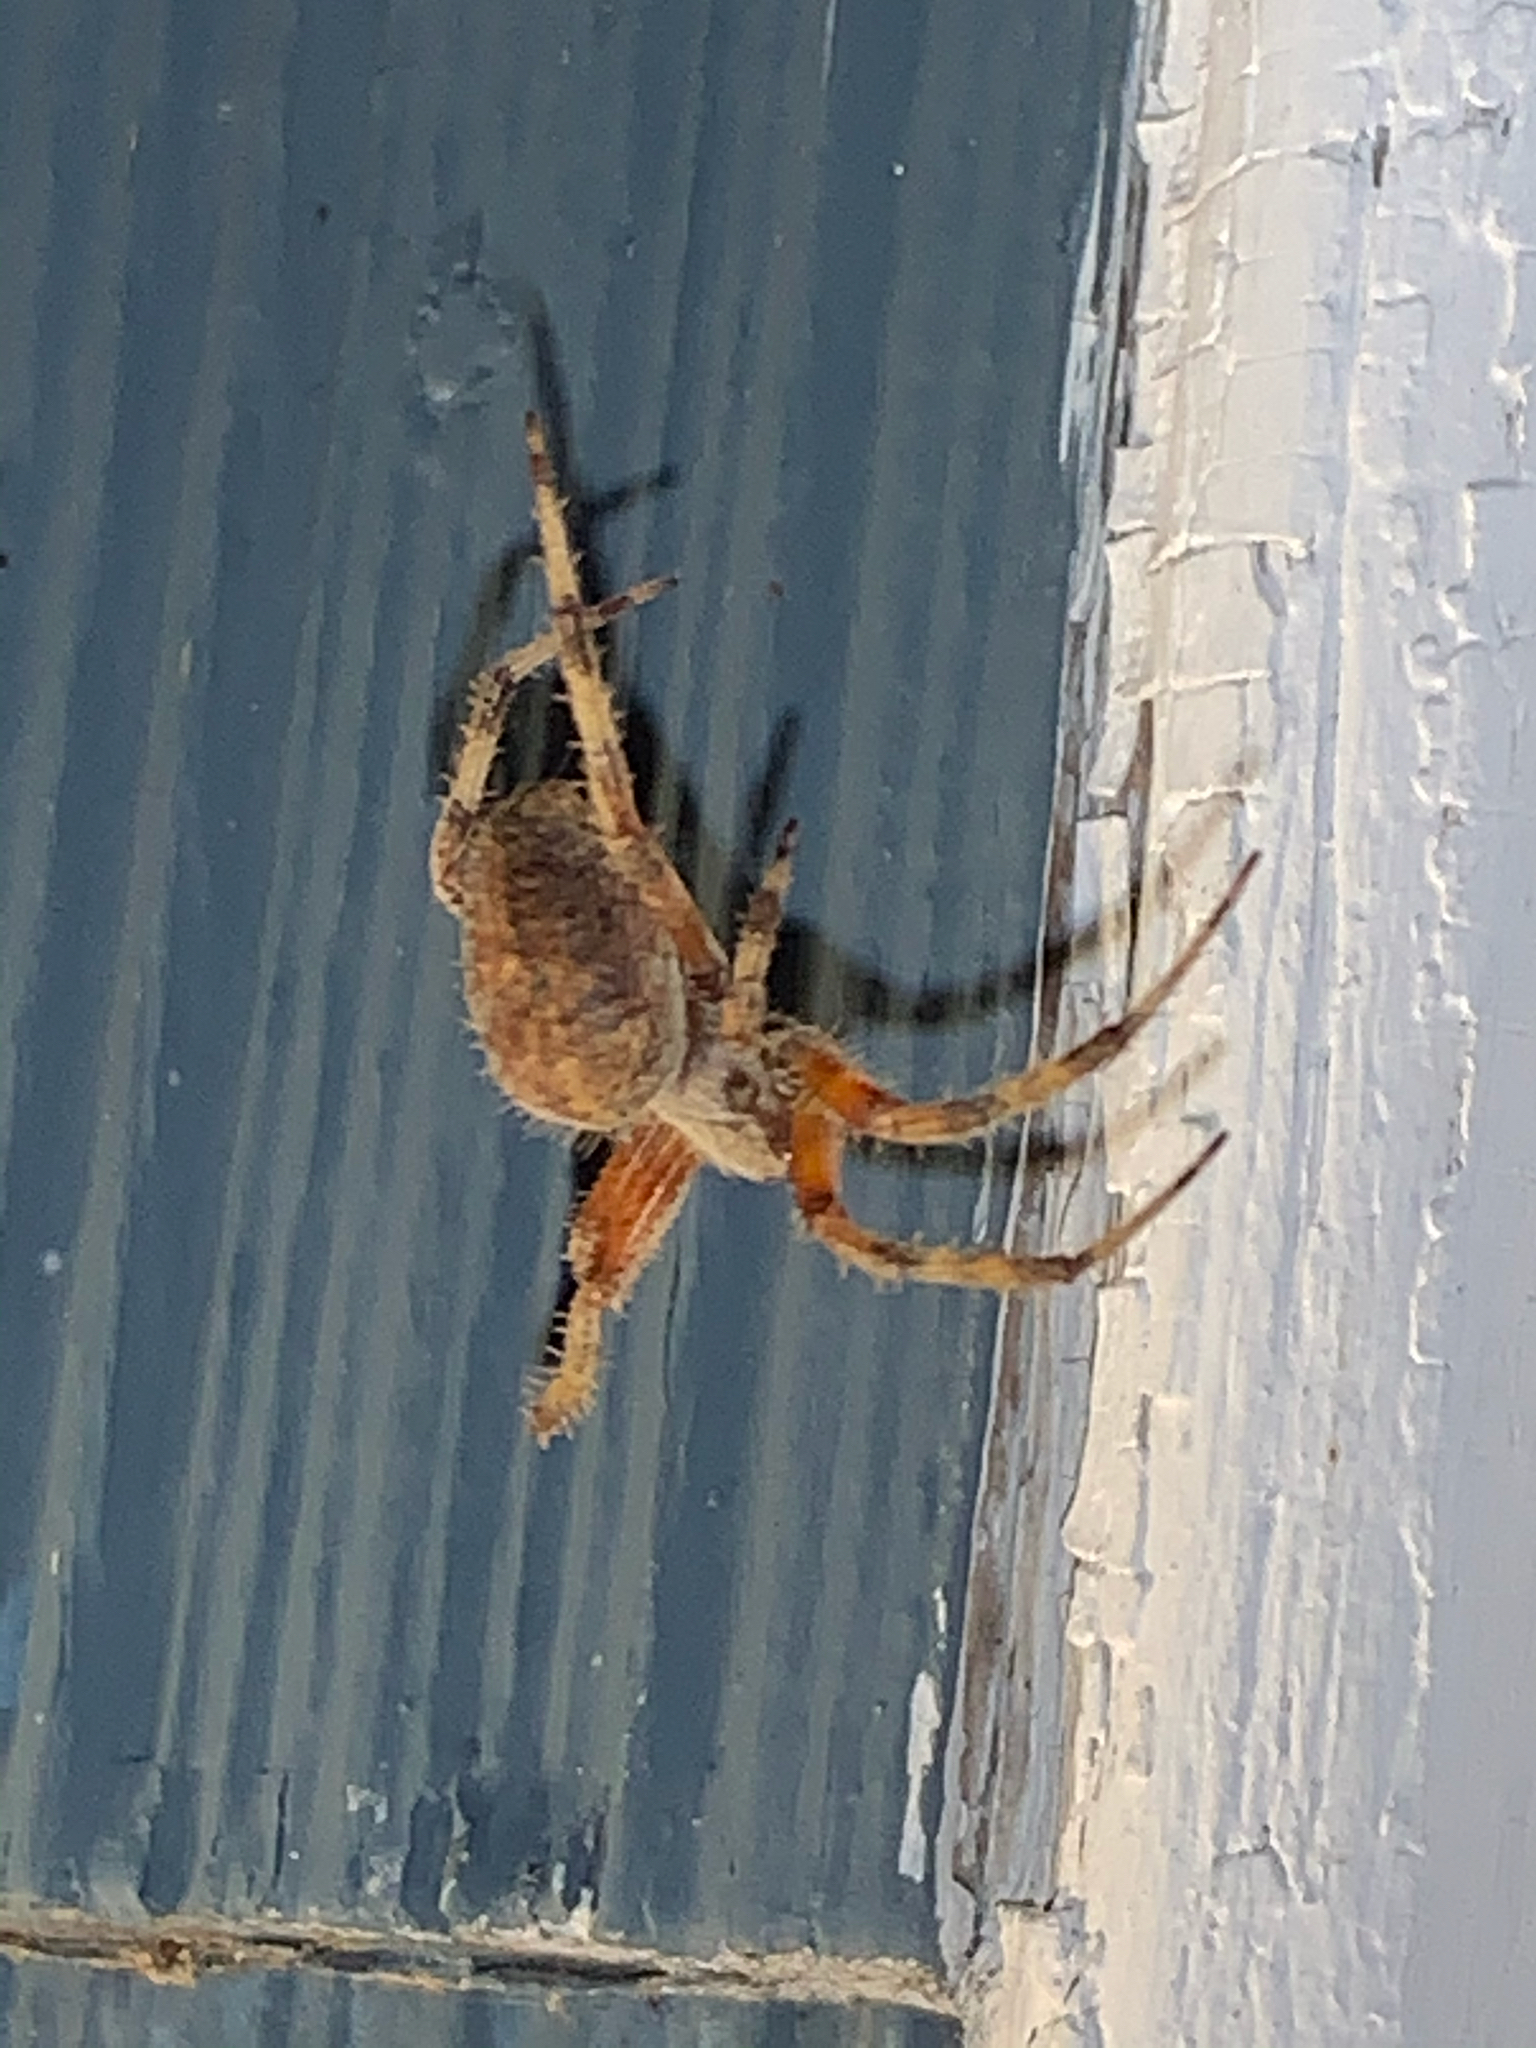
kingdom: Animalia
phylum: Arthropoda
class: Arachnida
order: Araneae
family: Araneidae
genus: Neoscona
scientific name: Neoscona crucifera
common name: Spotted orbweaver
